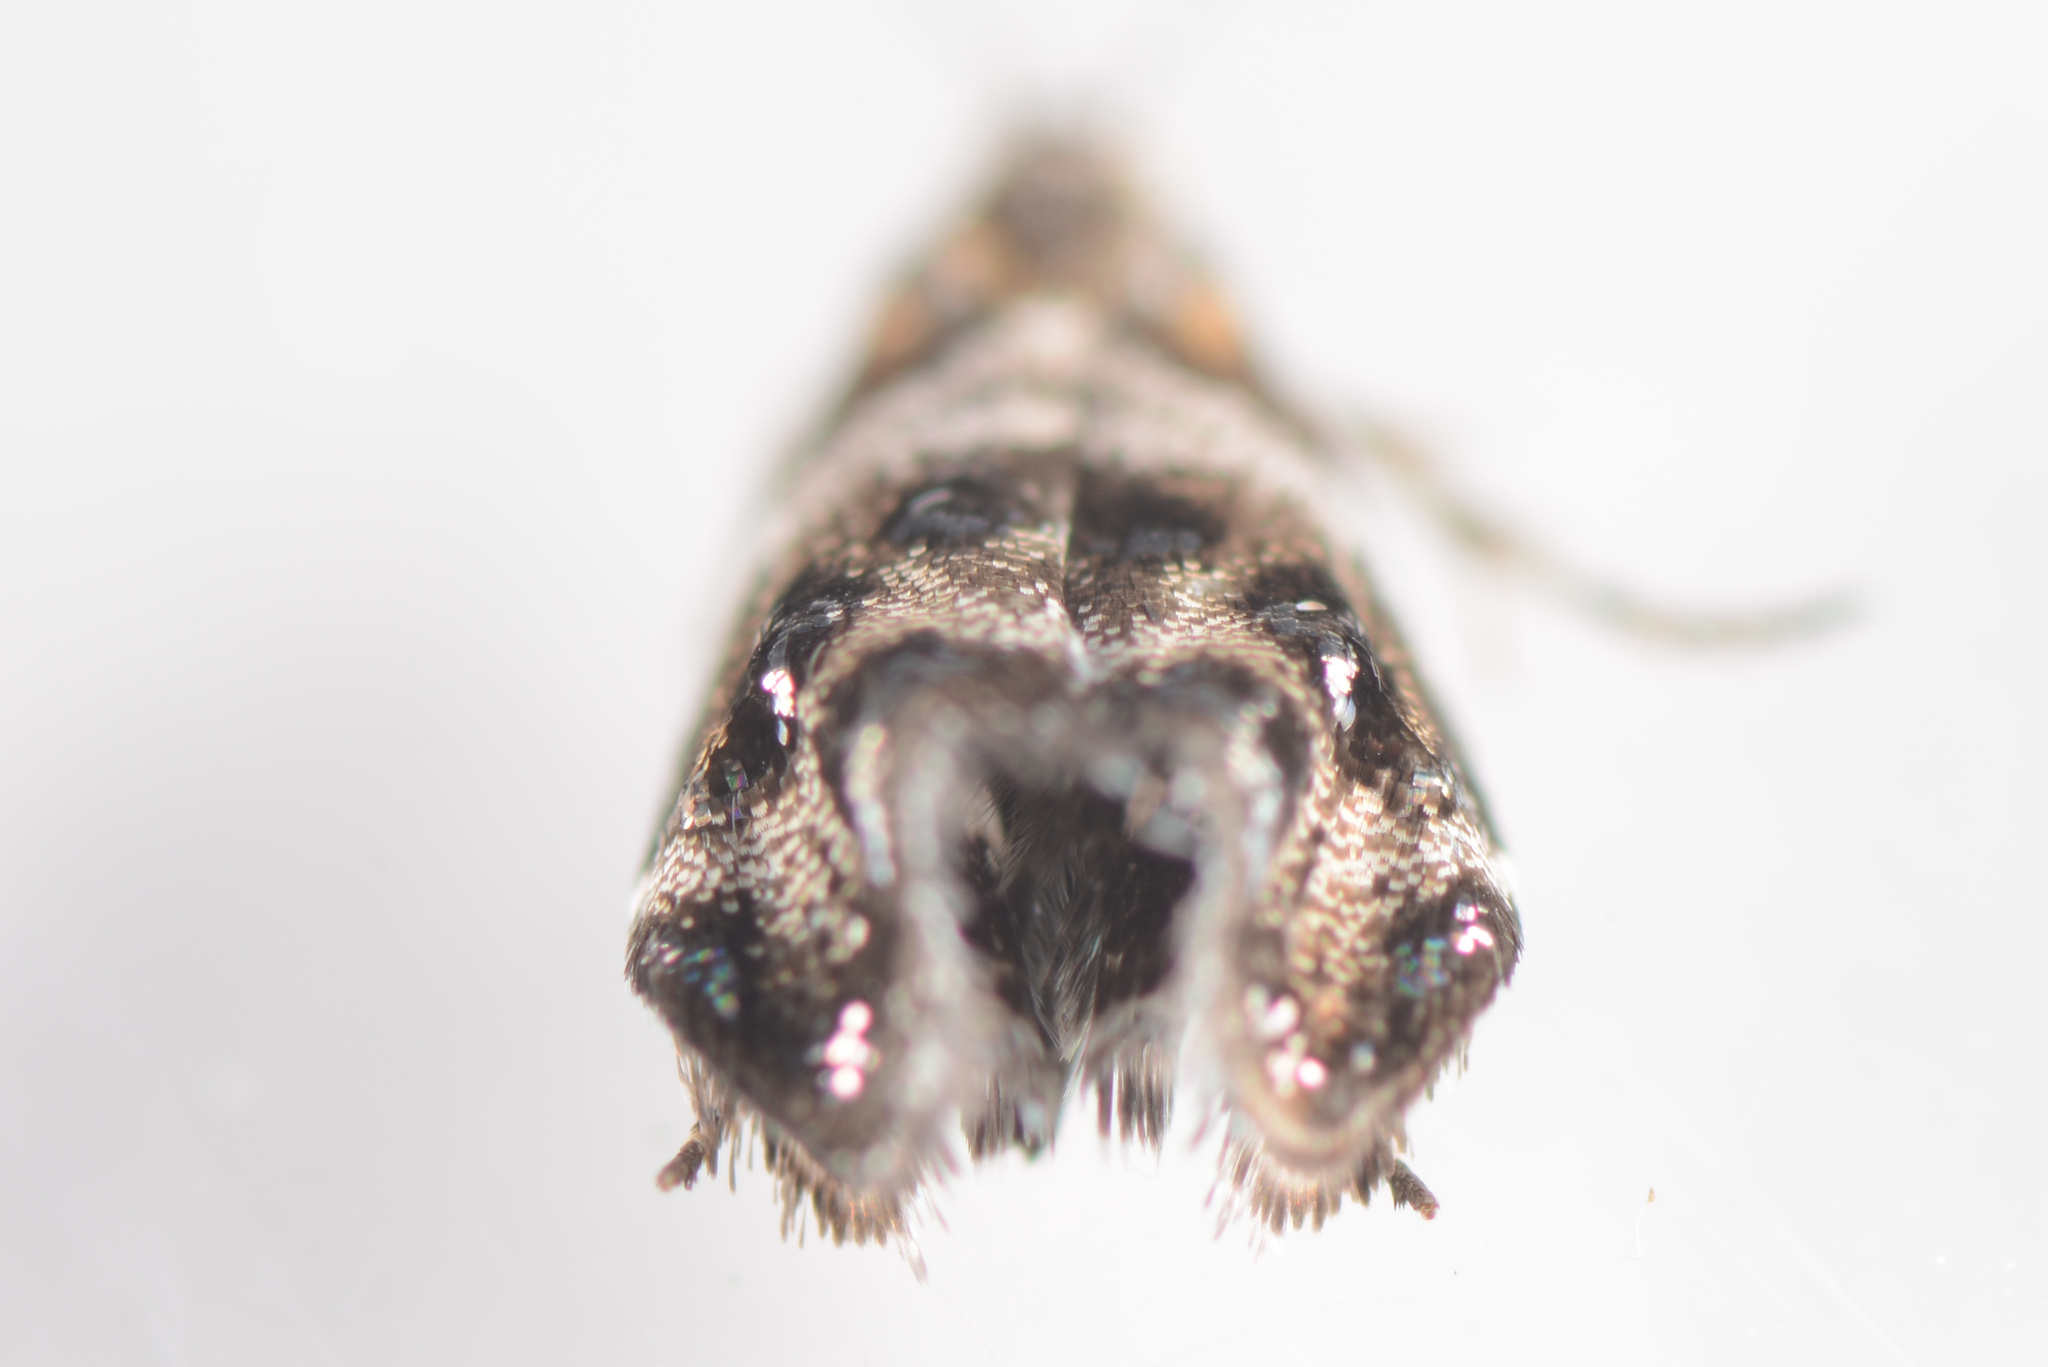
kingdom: Animalia
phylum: Arthropoda
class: Insecta
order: Lepidoptera
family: Choreutidae
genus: Tebenna
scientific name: Tebenna micalis
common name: Vagrant twitcher
